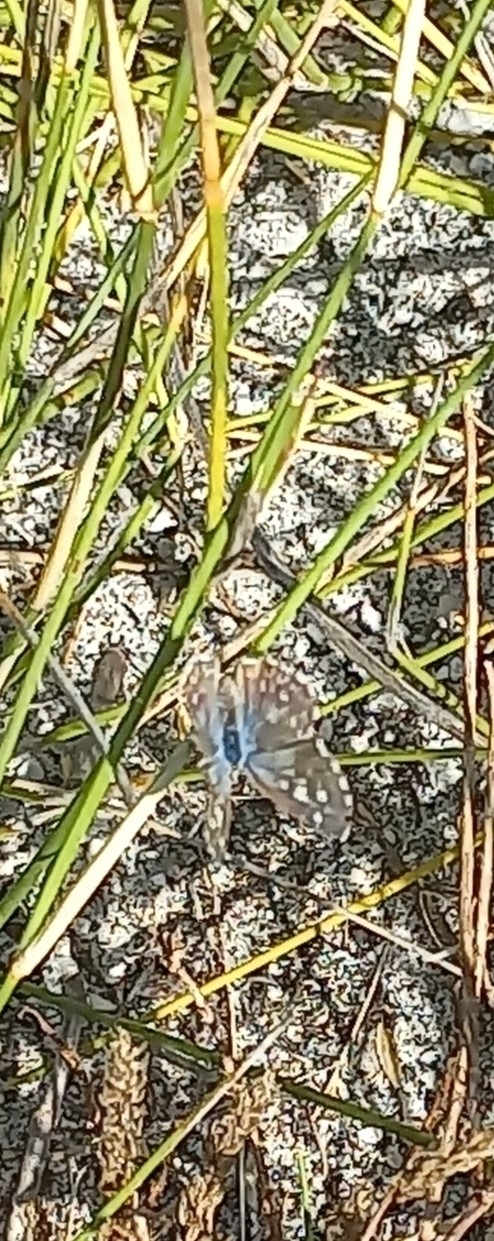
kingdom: Animalia
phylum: Arthropoda
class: Insecta
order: Lepidoptera
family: Lycaenidae
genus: Tarucus
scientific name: Tarucus thespis
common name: Vivid dotted blue
